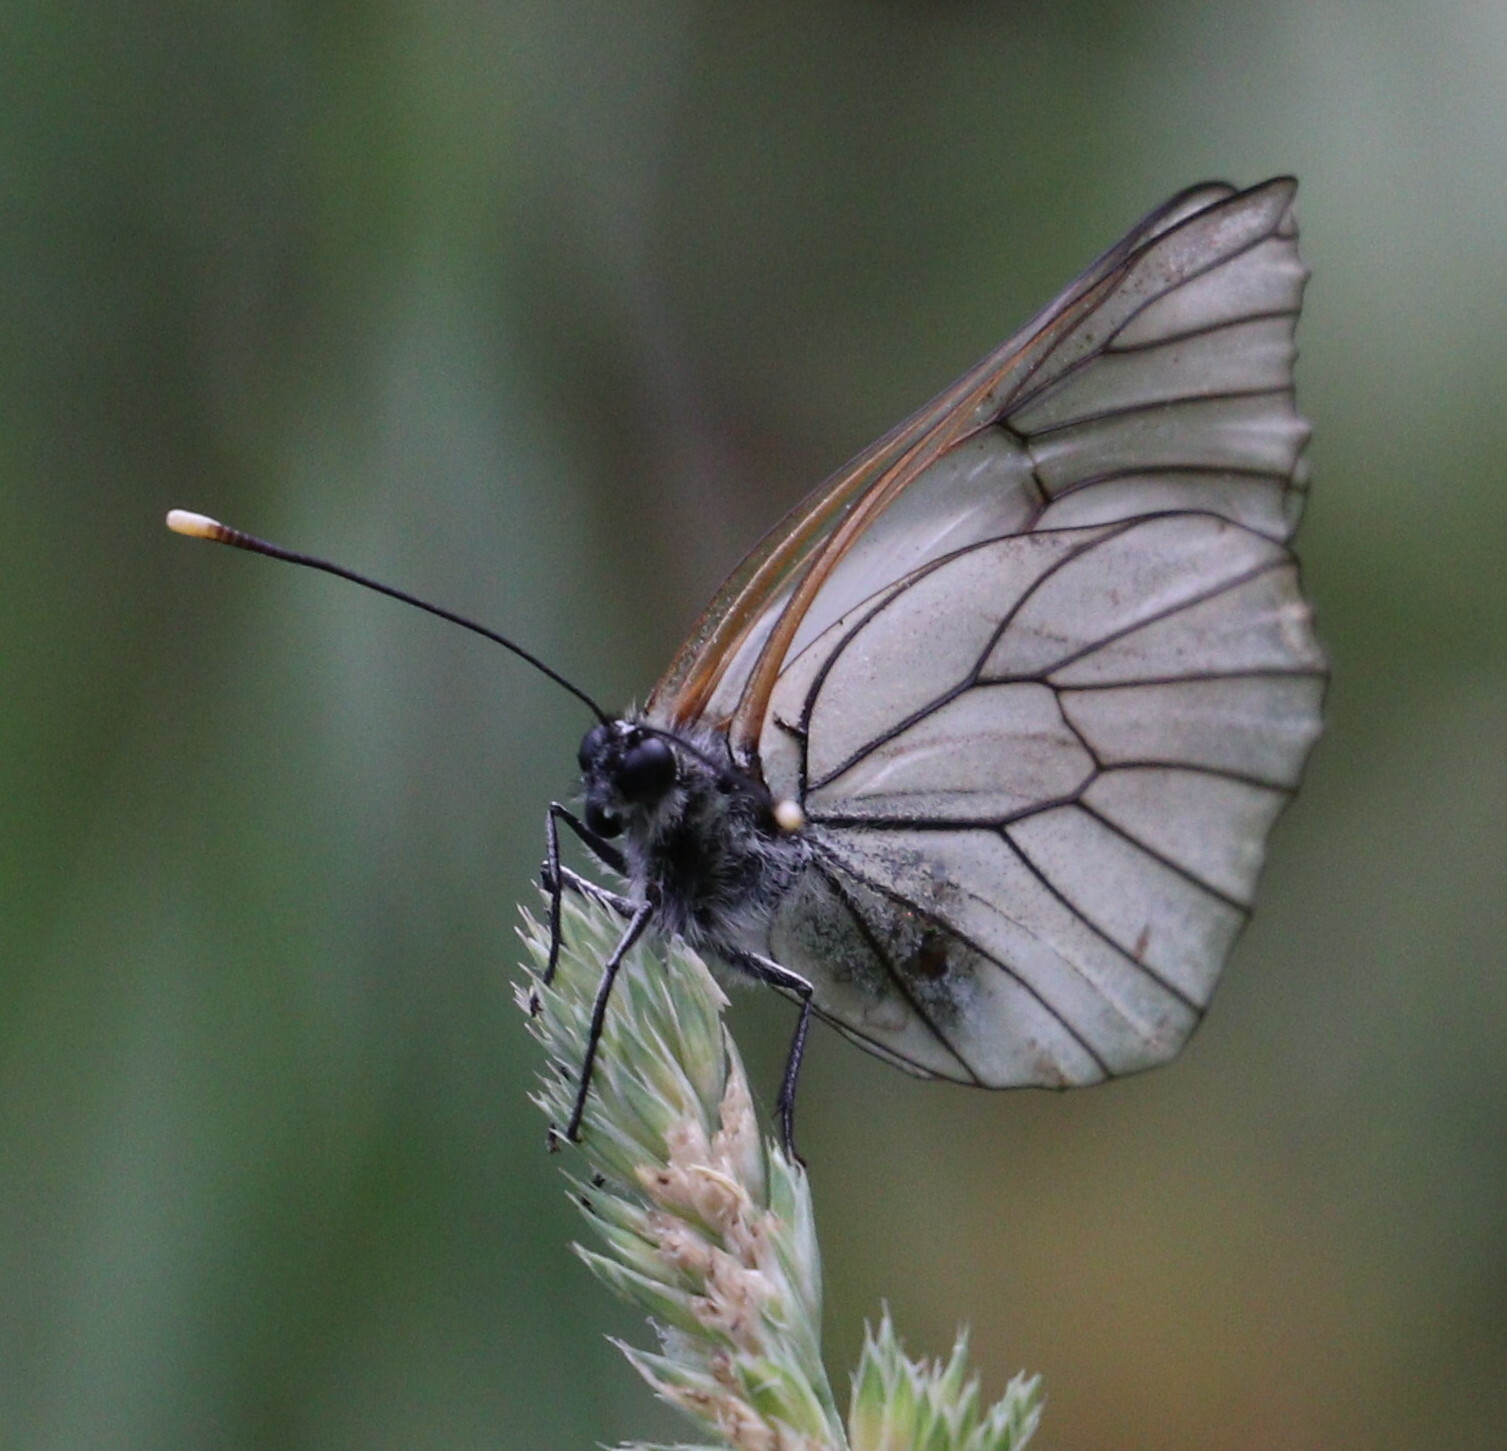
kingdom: Animalia
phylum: Arthropoda
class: Insecta
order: Lepidoptera
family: Pieridae
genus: Aporia
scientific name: Aporia crataegi
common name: Black-veined white
